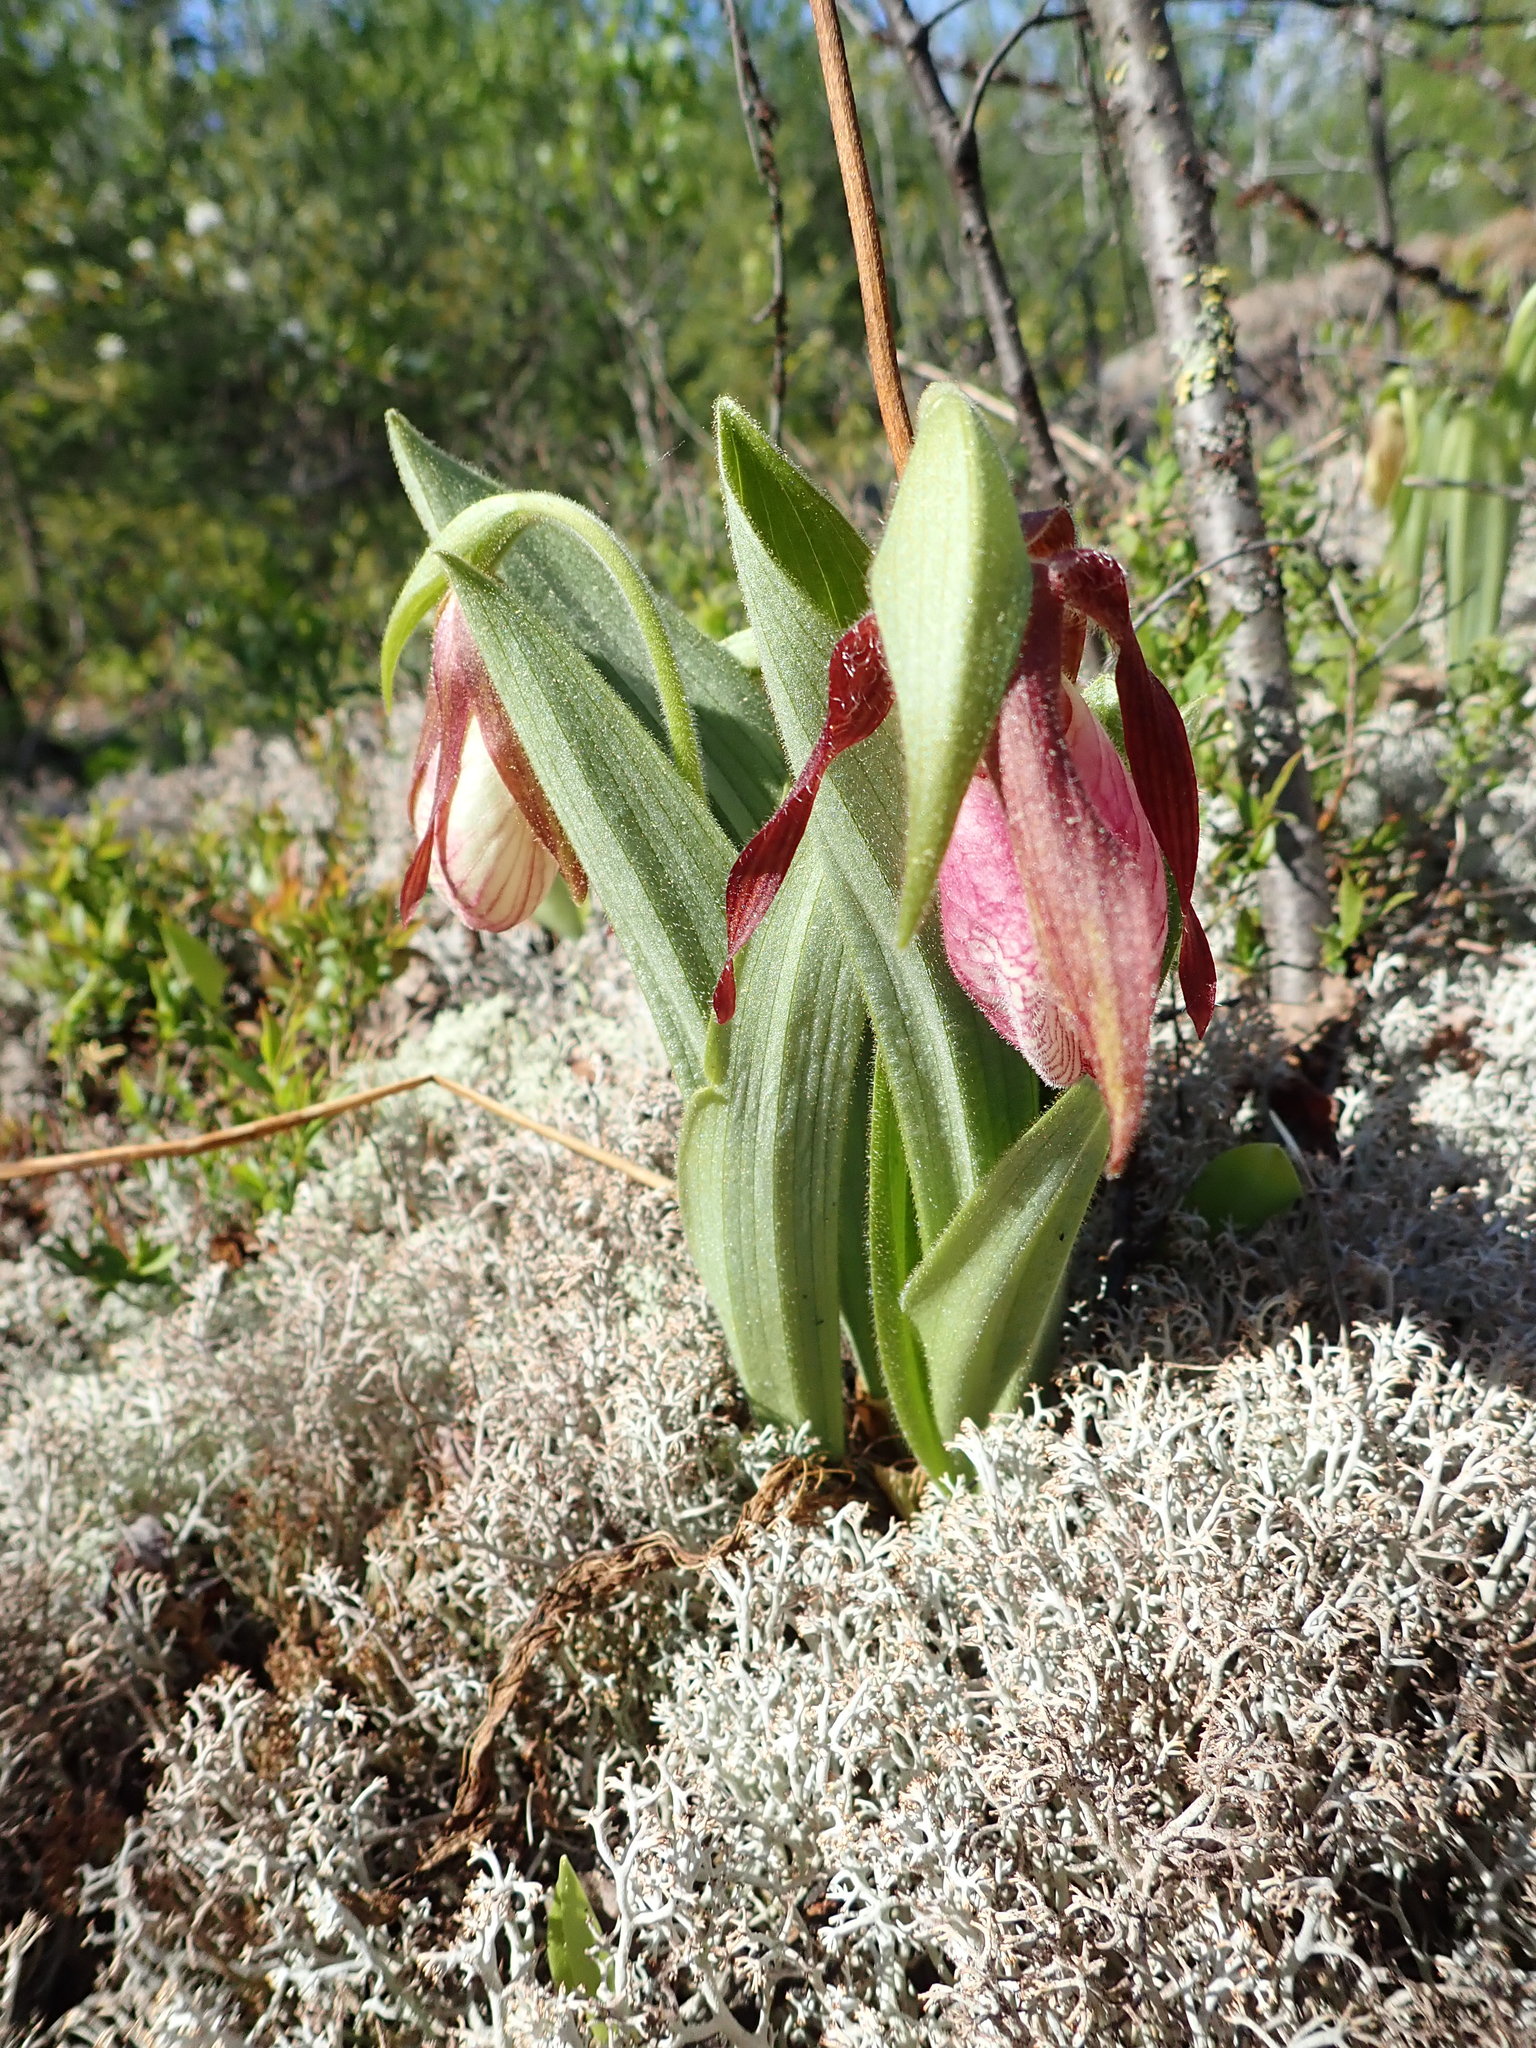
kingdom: Plantae
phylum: Tracheophyta
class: Liliopsida
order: Asparagales
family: Orchidaceae
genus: Cypripedium
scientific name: Cypripedium acaule
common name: Pink lady's-slipper
